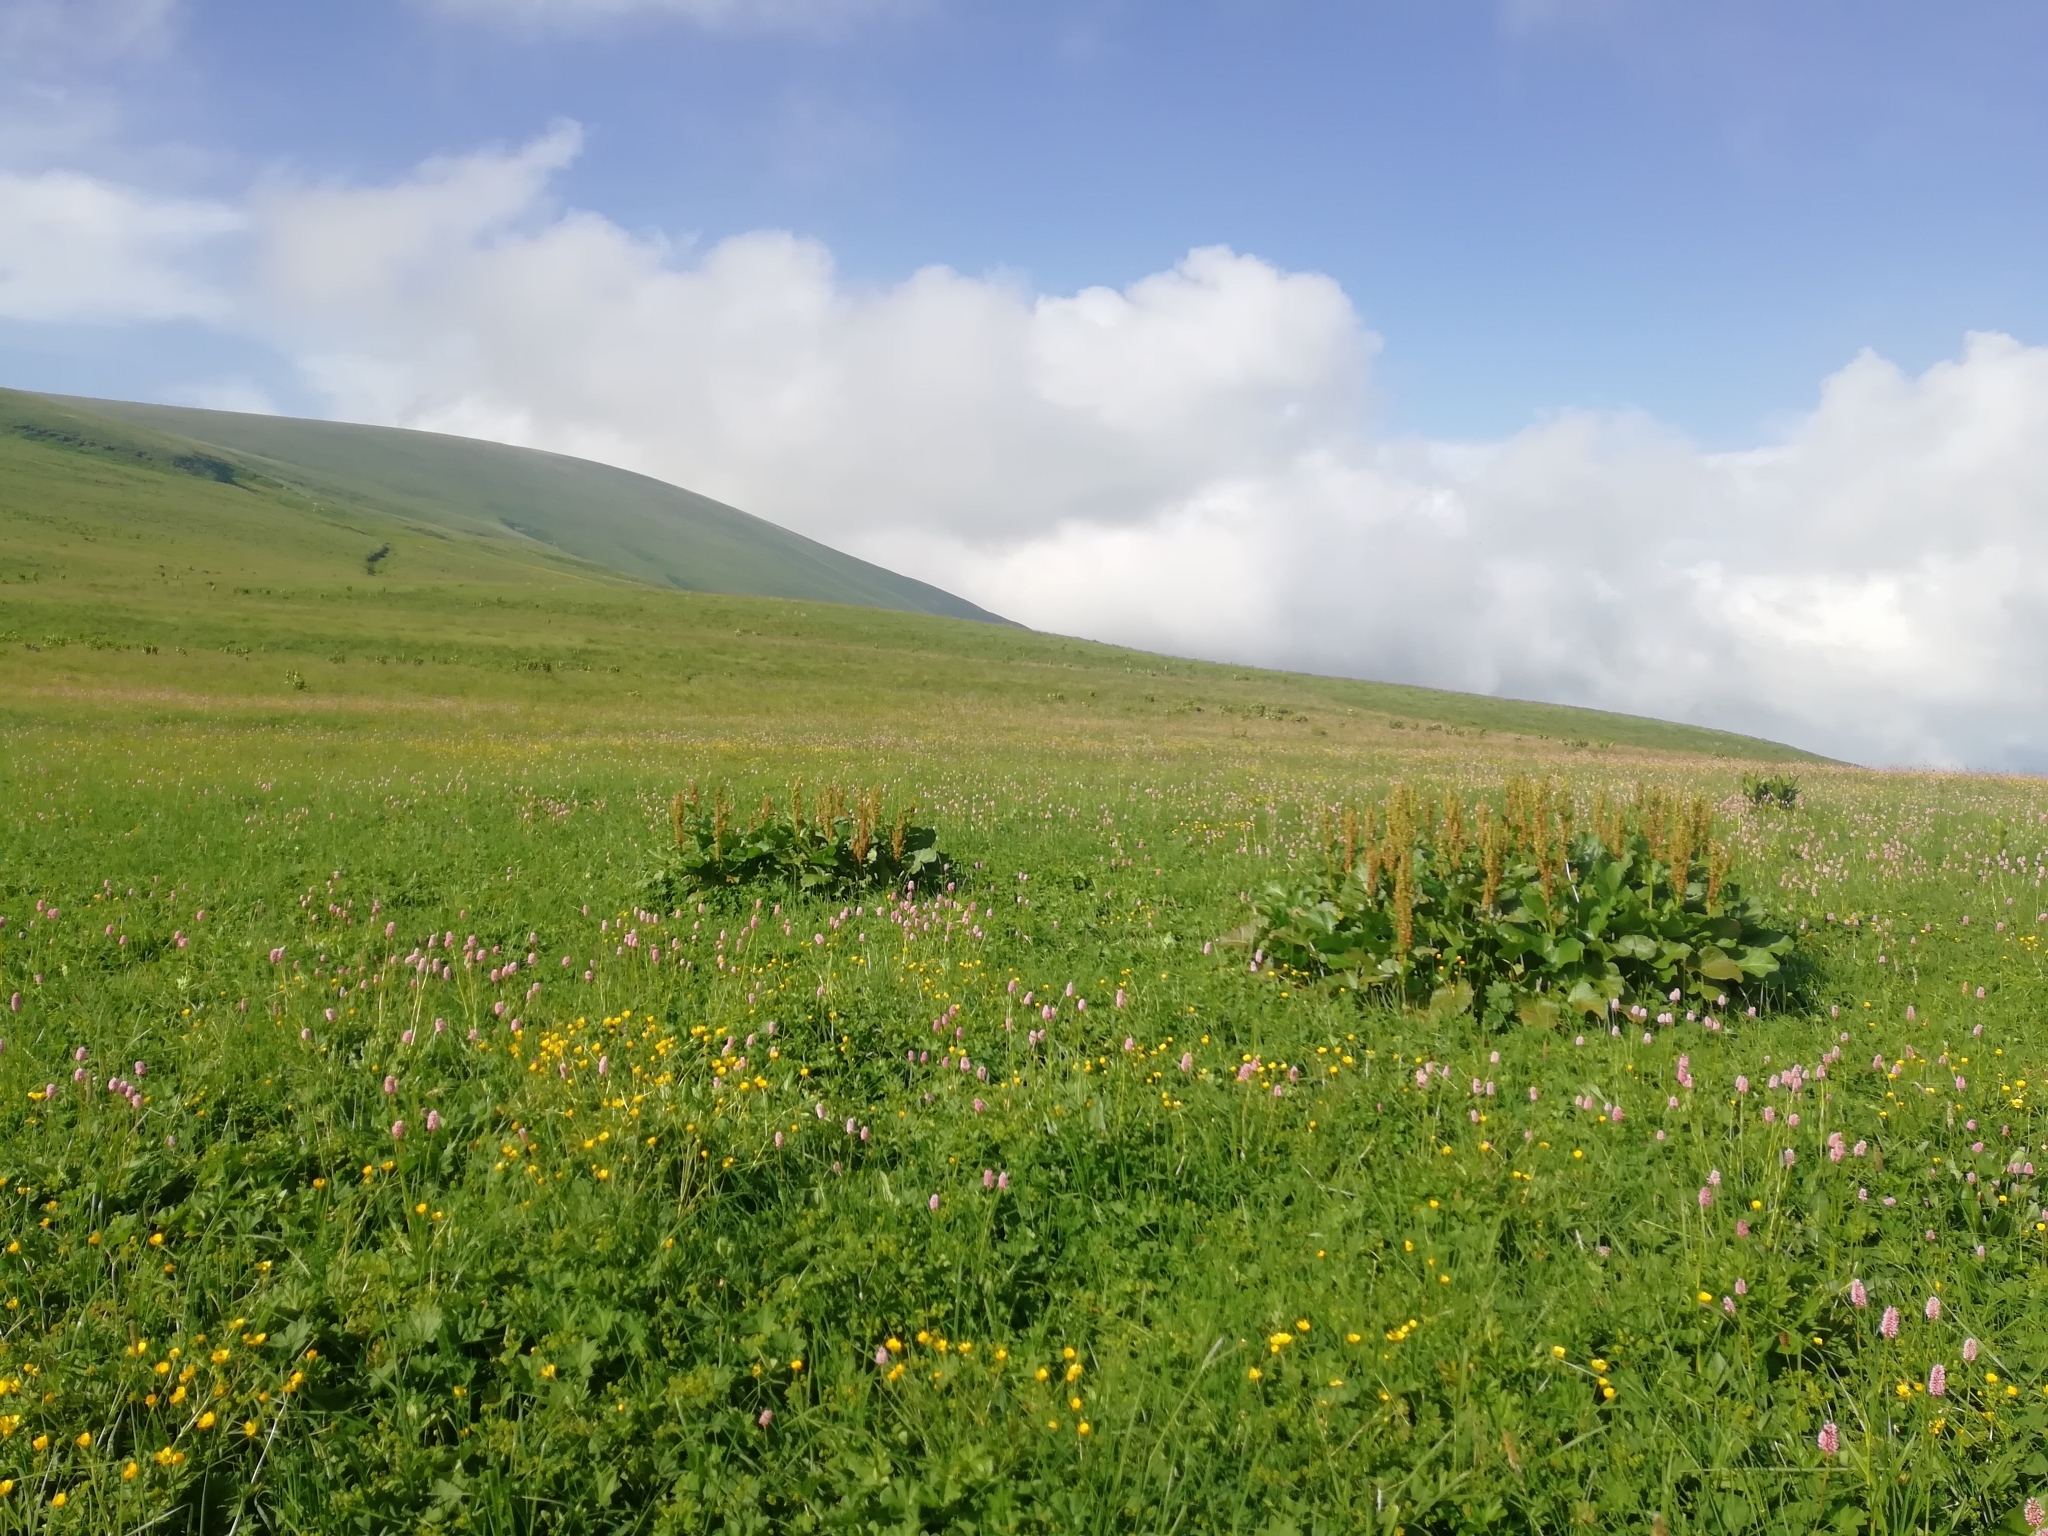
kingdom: Plantae
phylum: Tracheophyta
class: Magnoliopsida
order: Caryophyllales
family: Polygonaceae
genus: Bistorta
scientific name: Bistorta carnea
